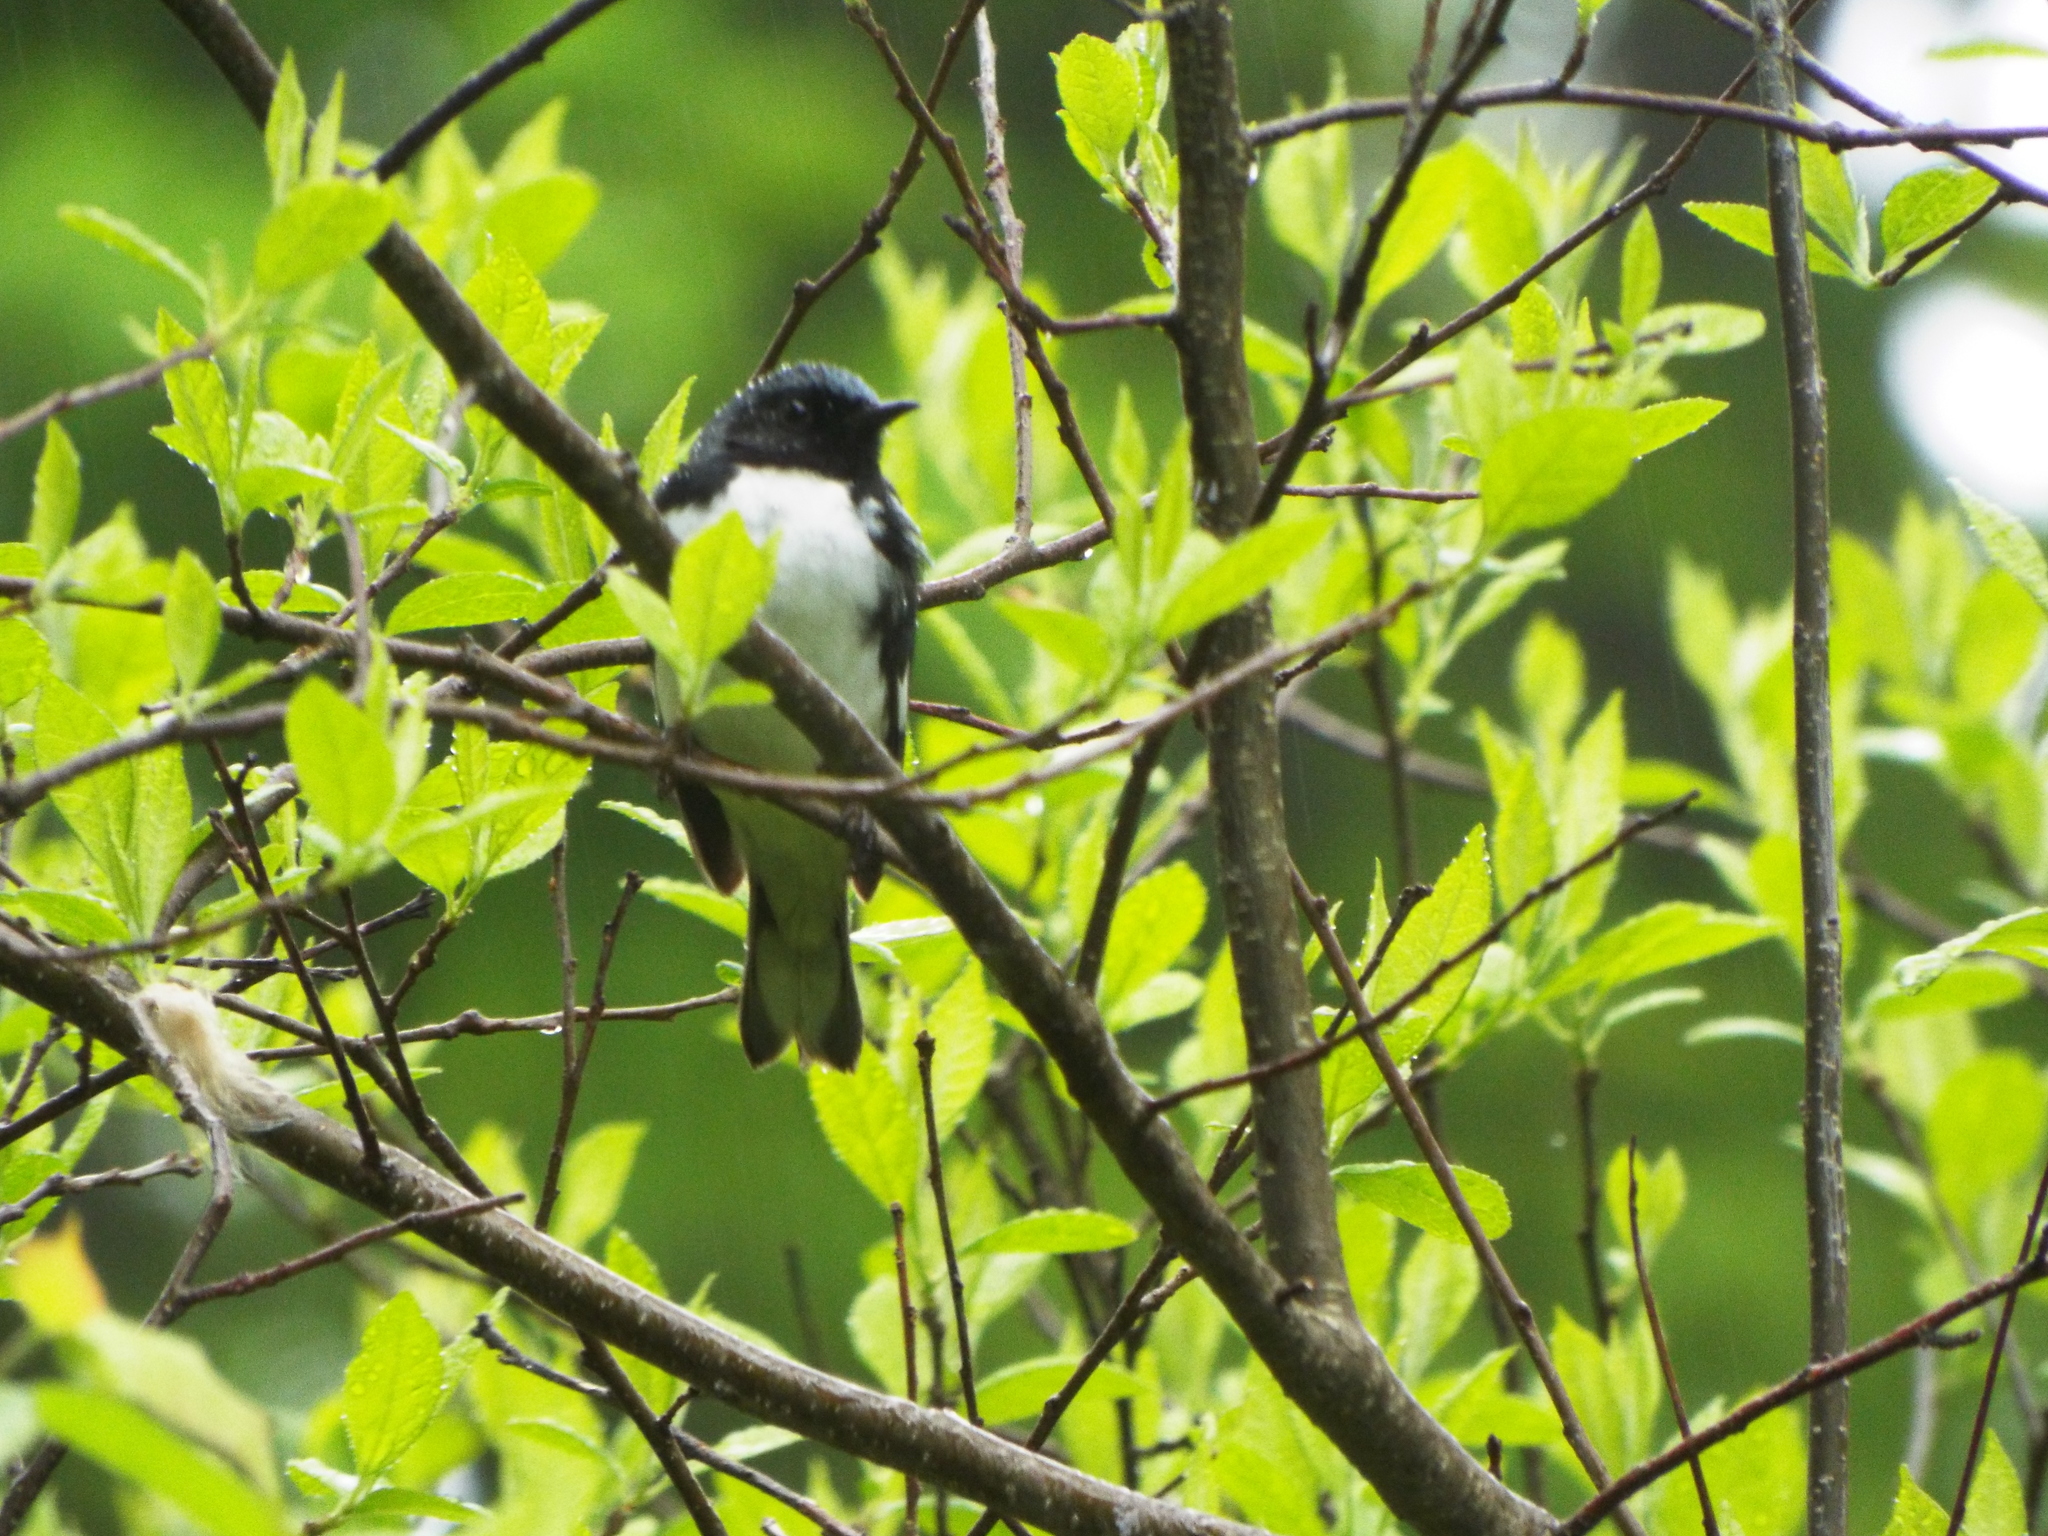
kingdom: Animalia
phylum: Chordata
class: Aves
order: Passeriformes
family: Parulidae
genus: Setophaga
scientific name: Setophaga caerulescens
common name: Black-throated blue warbler
